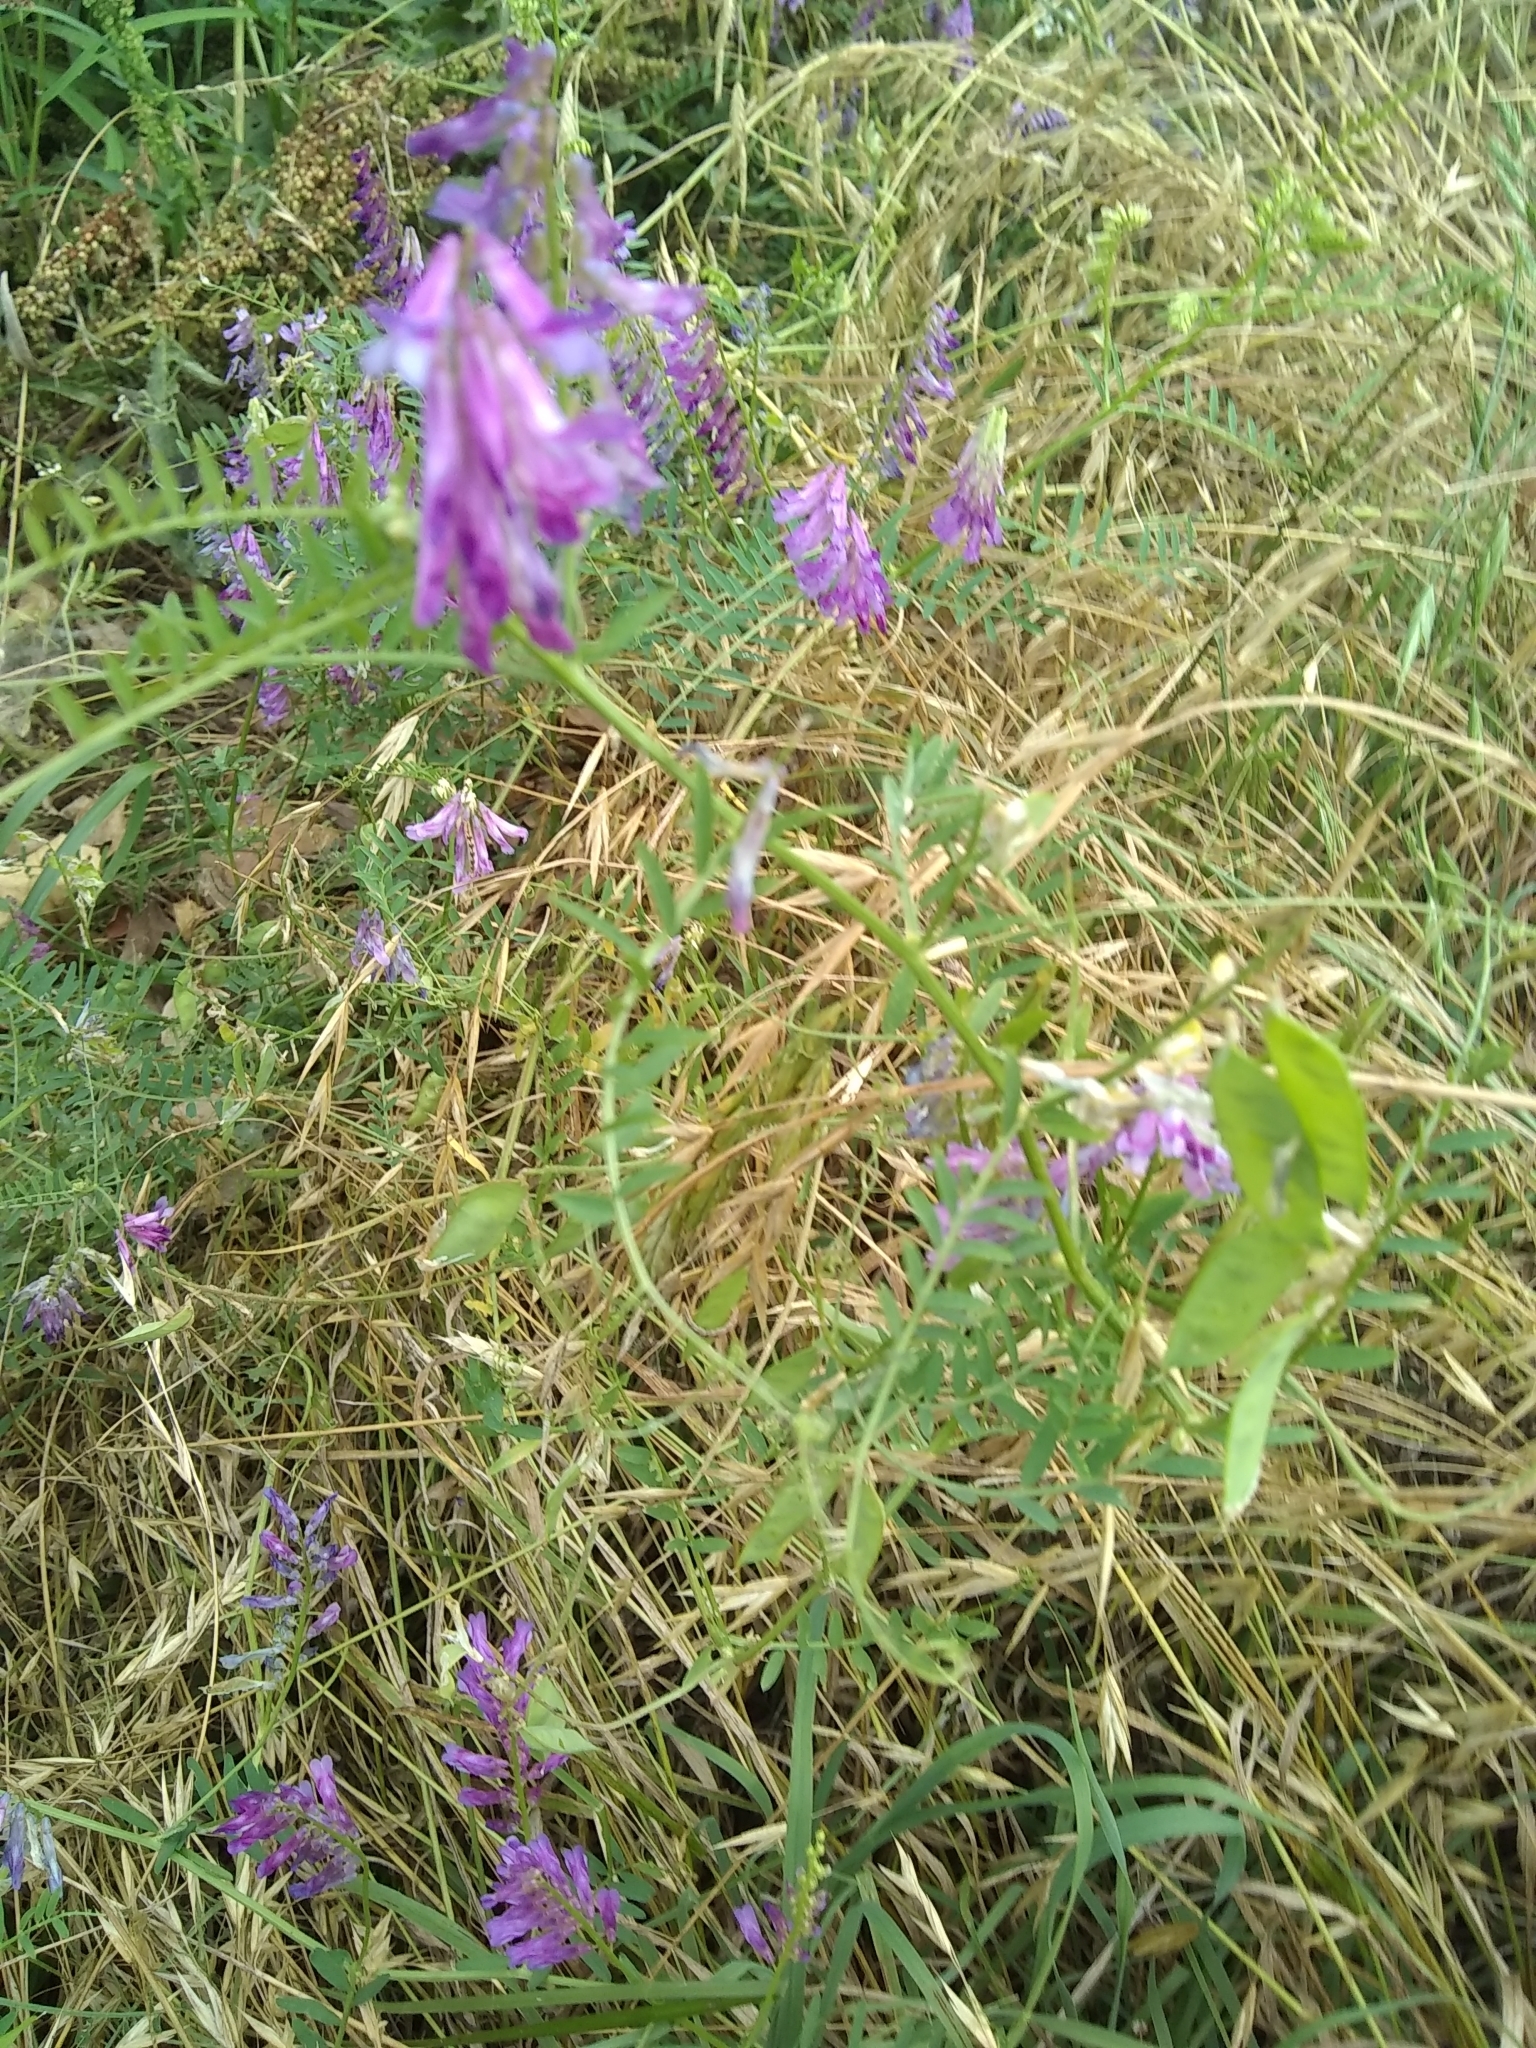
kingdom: Plantae
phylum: Tracheophyta
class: Magnoliopsida
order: Fabales
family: Fabaceae
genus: Vicia
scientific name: Vicia villosa
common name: Fodder vetch
